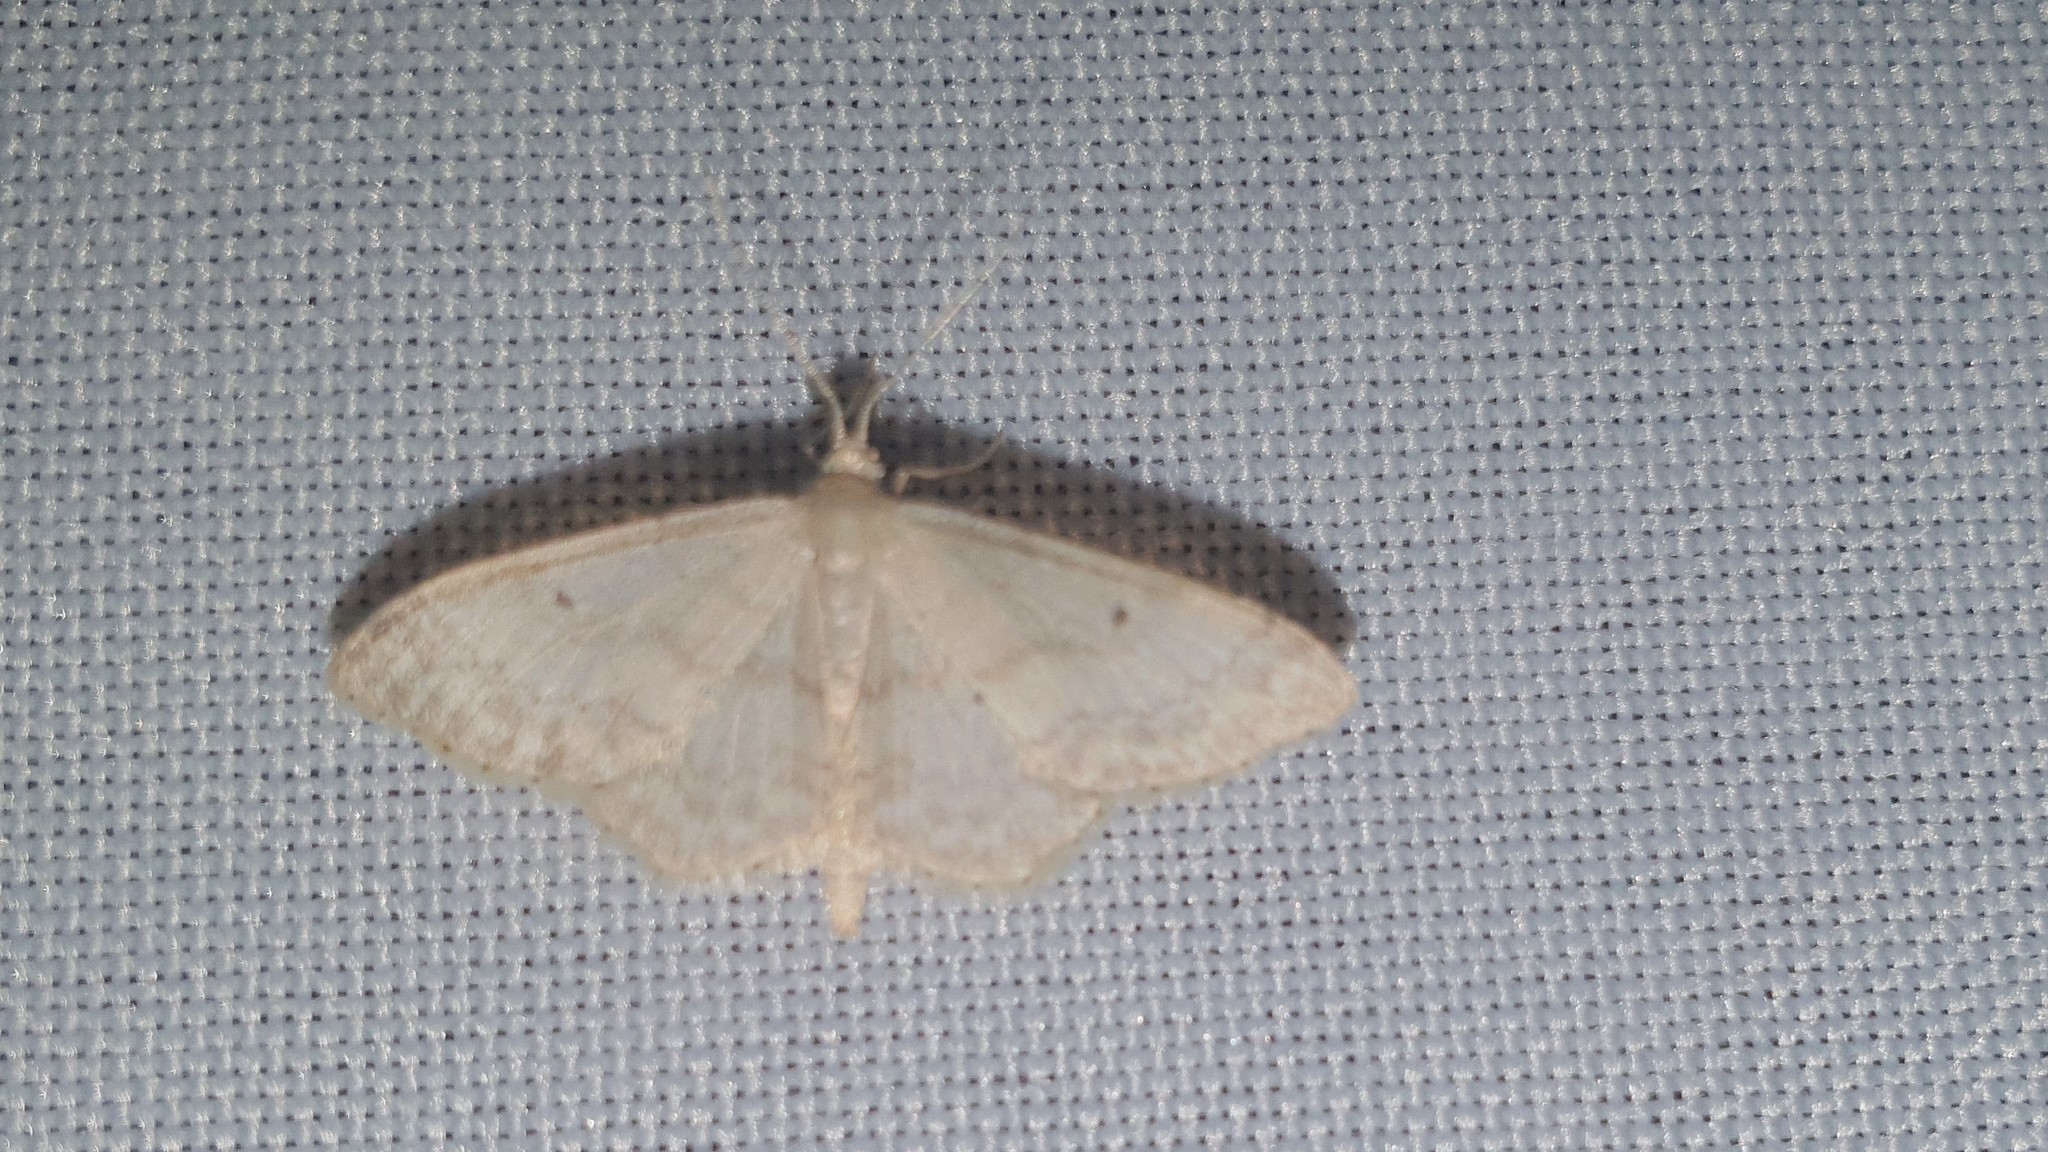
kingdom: Animalia
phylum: Arthropoda
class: Insecta
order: Lepidoptera
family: Geometridae
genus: Idaea
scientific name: Idaea biselata
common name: Small fan-footed wave
